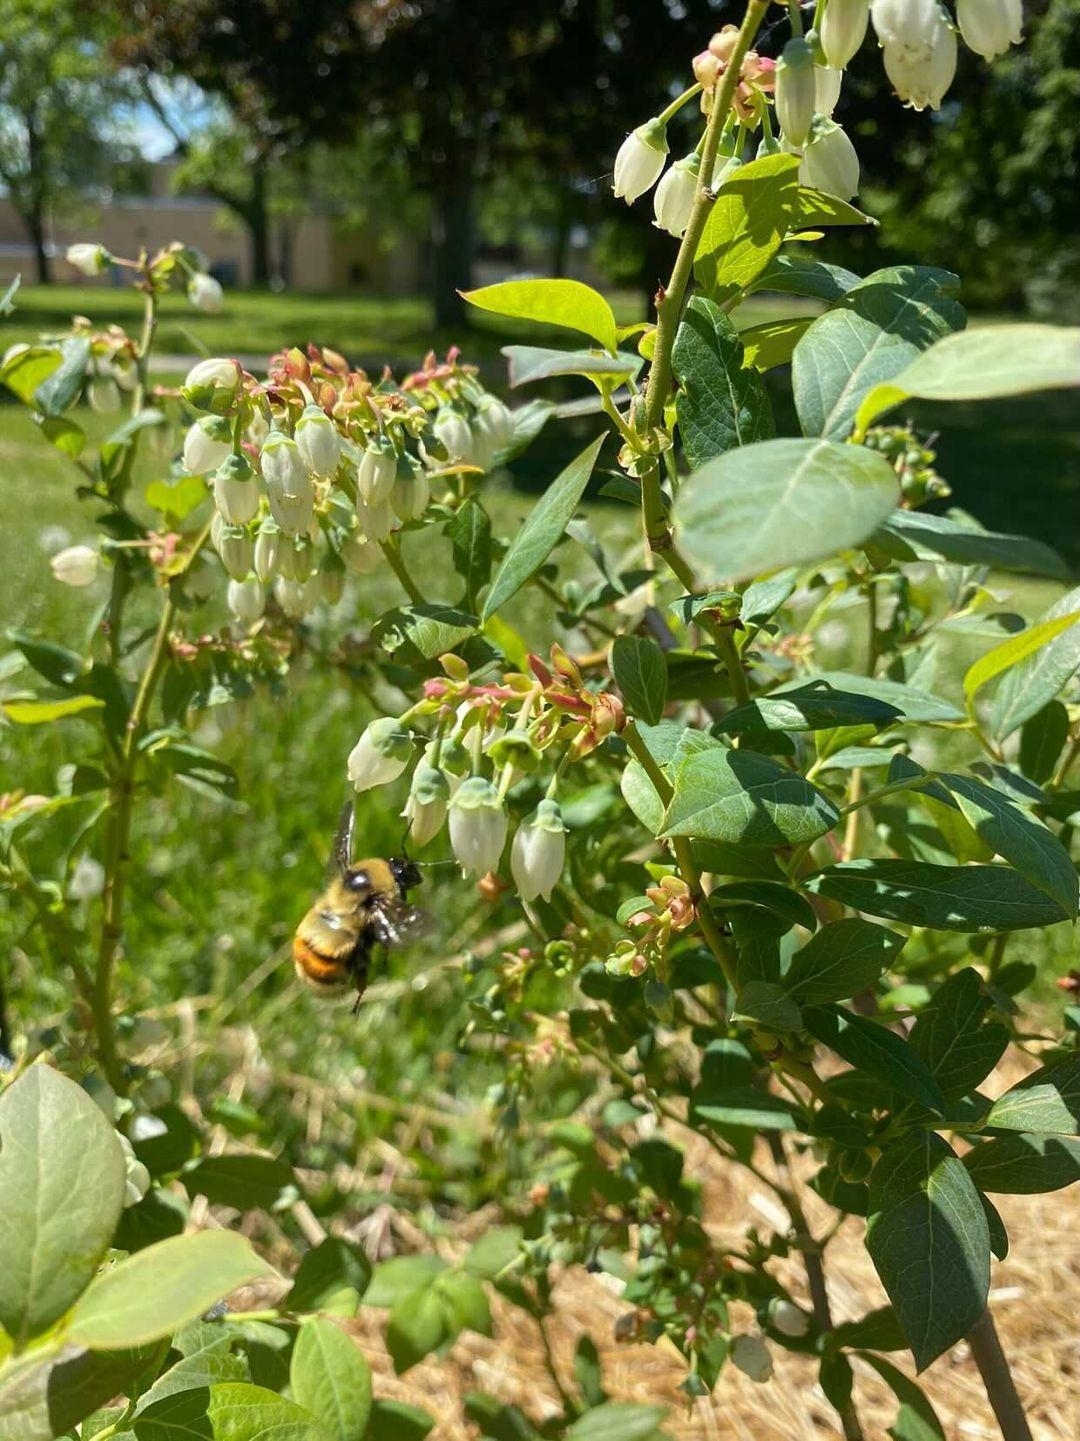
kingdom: Animalia
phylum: Arthropoda
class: Insecta
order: Hymenoptera
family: Apidae
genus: Bombus
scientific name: Bombus rufocinctus
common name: Red-belted bumble bee
